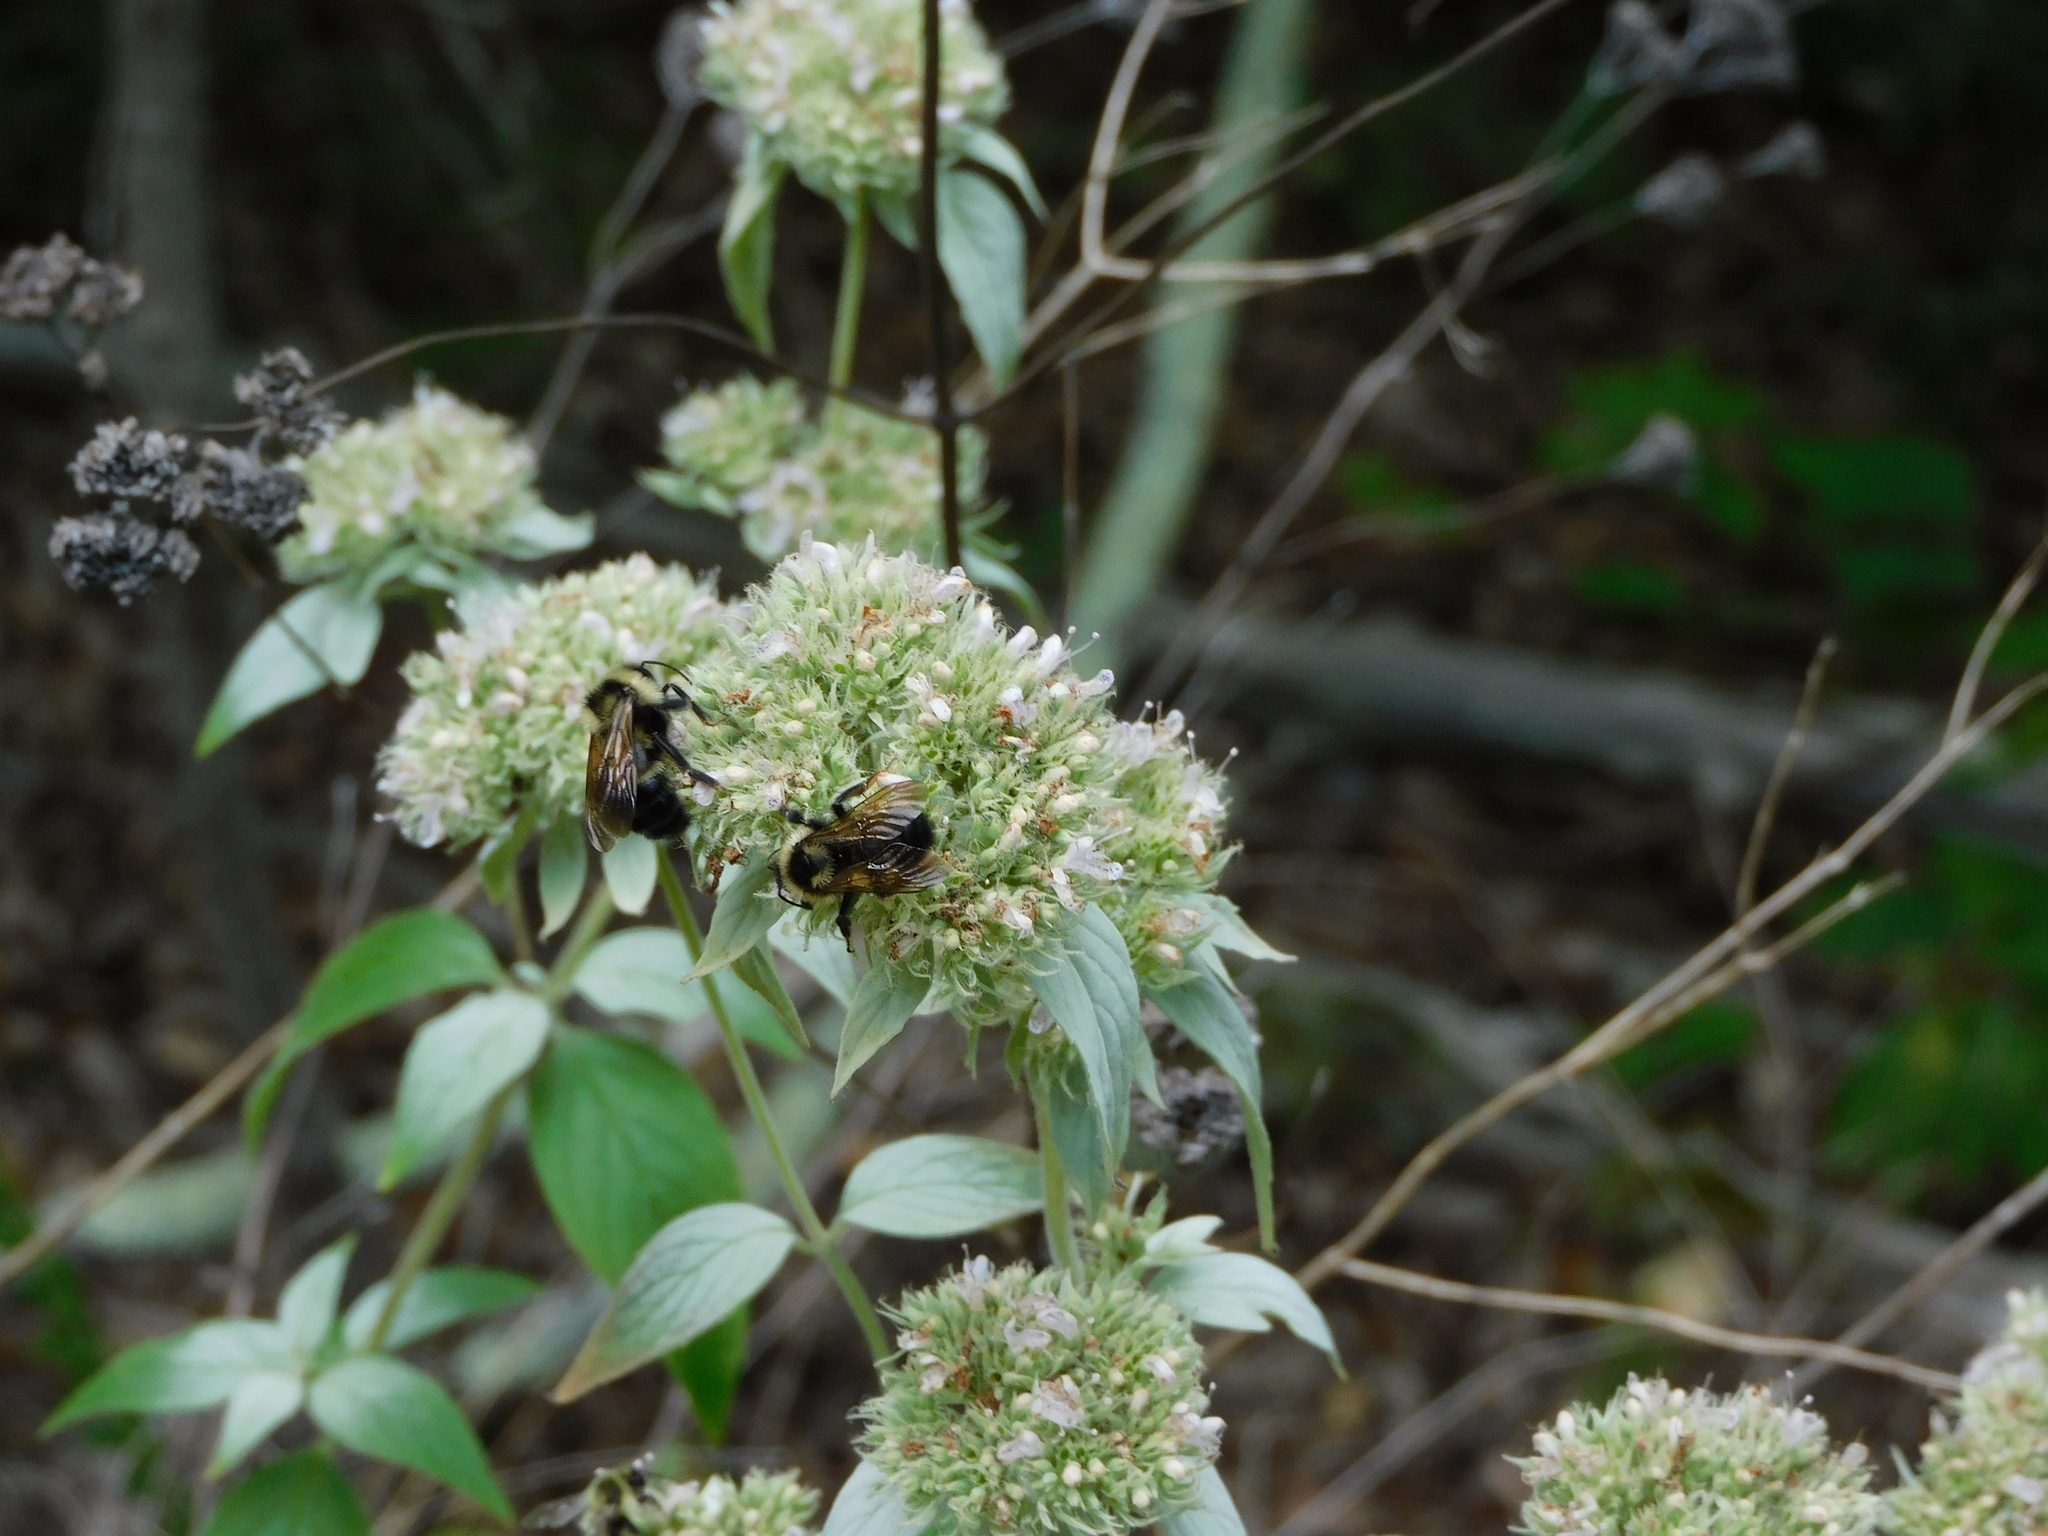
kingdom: Animalia
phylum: Arthropoda
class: Insecta
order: Hymenoptera
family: Apidae
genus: Bombus
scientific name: Bombus citrinus
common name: Lemon cuckoo bumble bee
